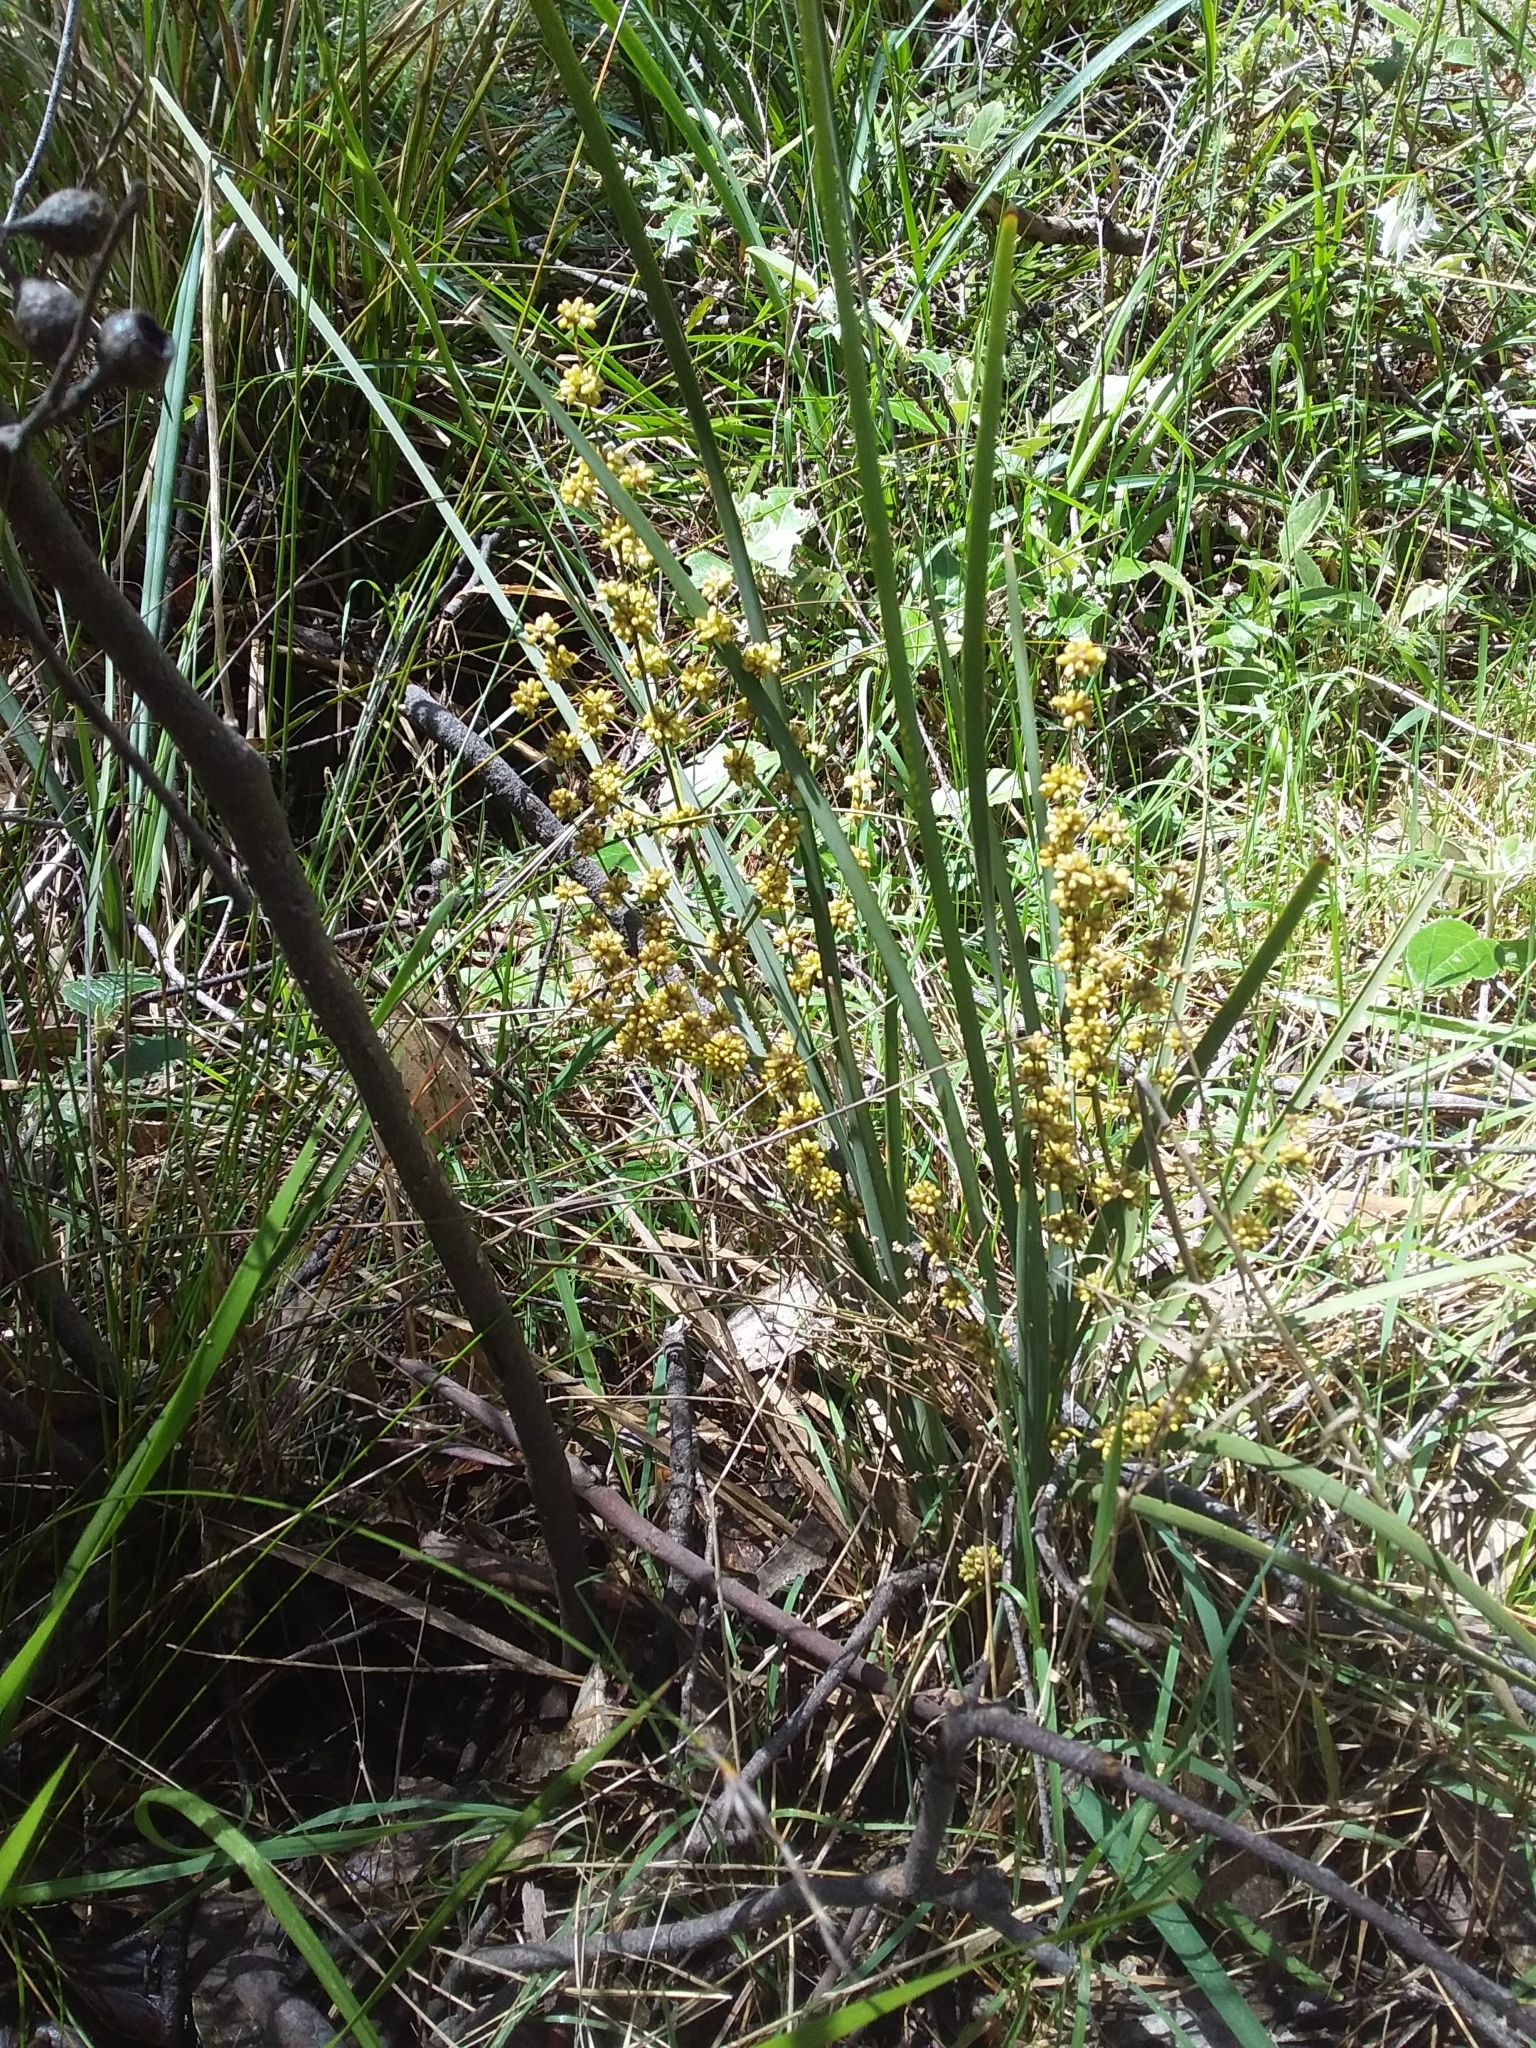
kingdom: Plantae
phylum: Tracheophyta
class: Liliopsida
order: Asparagales
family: Asparagaceae
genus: Lomandra
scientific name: Lomandra multiflora
